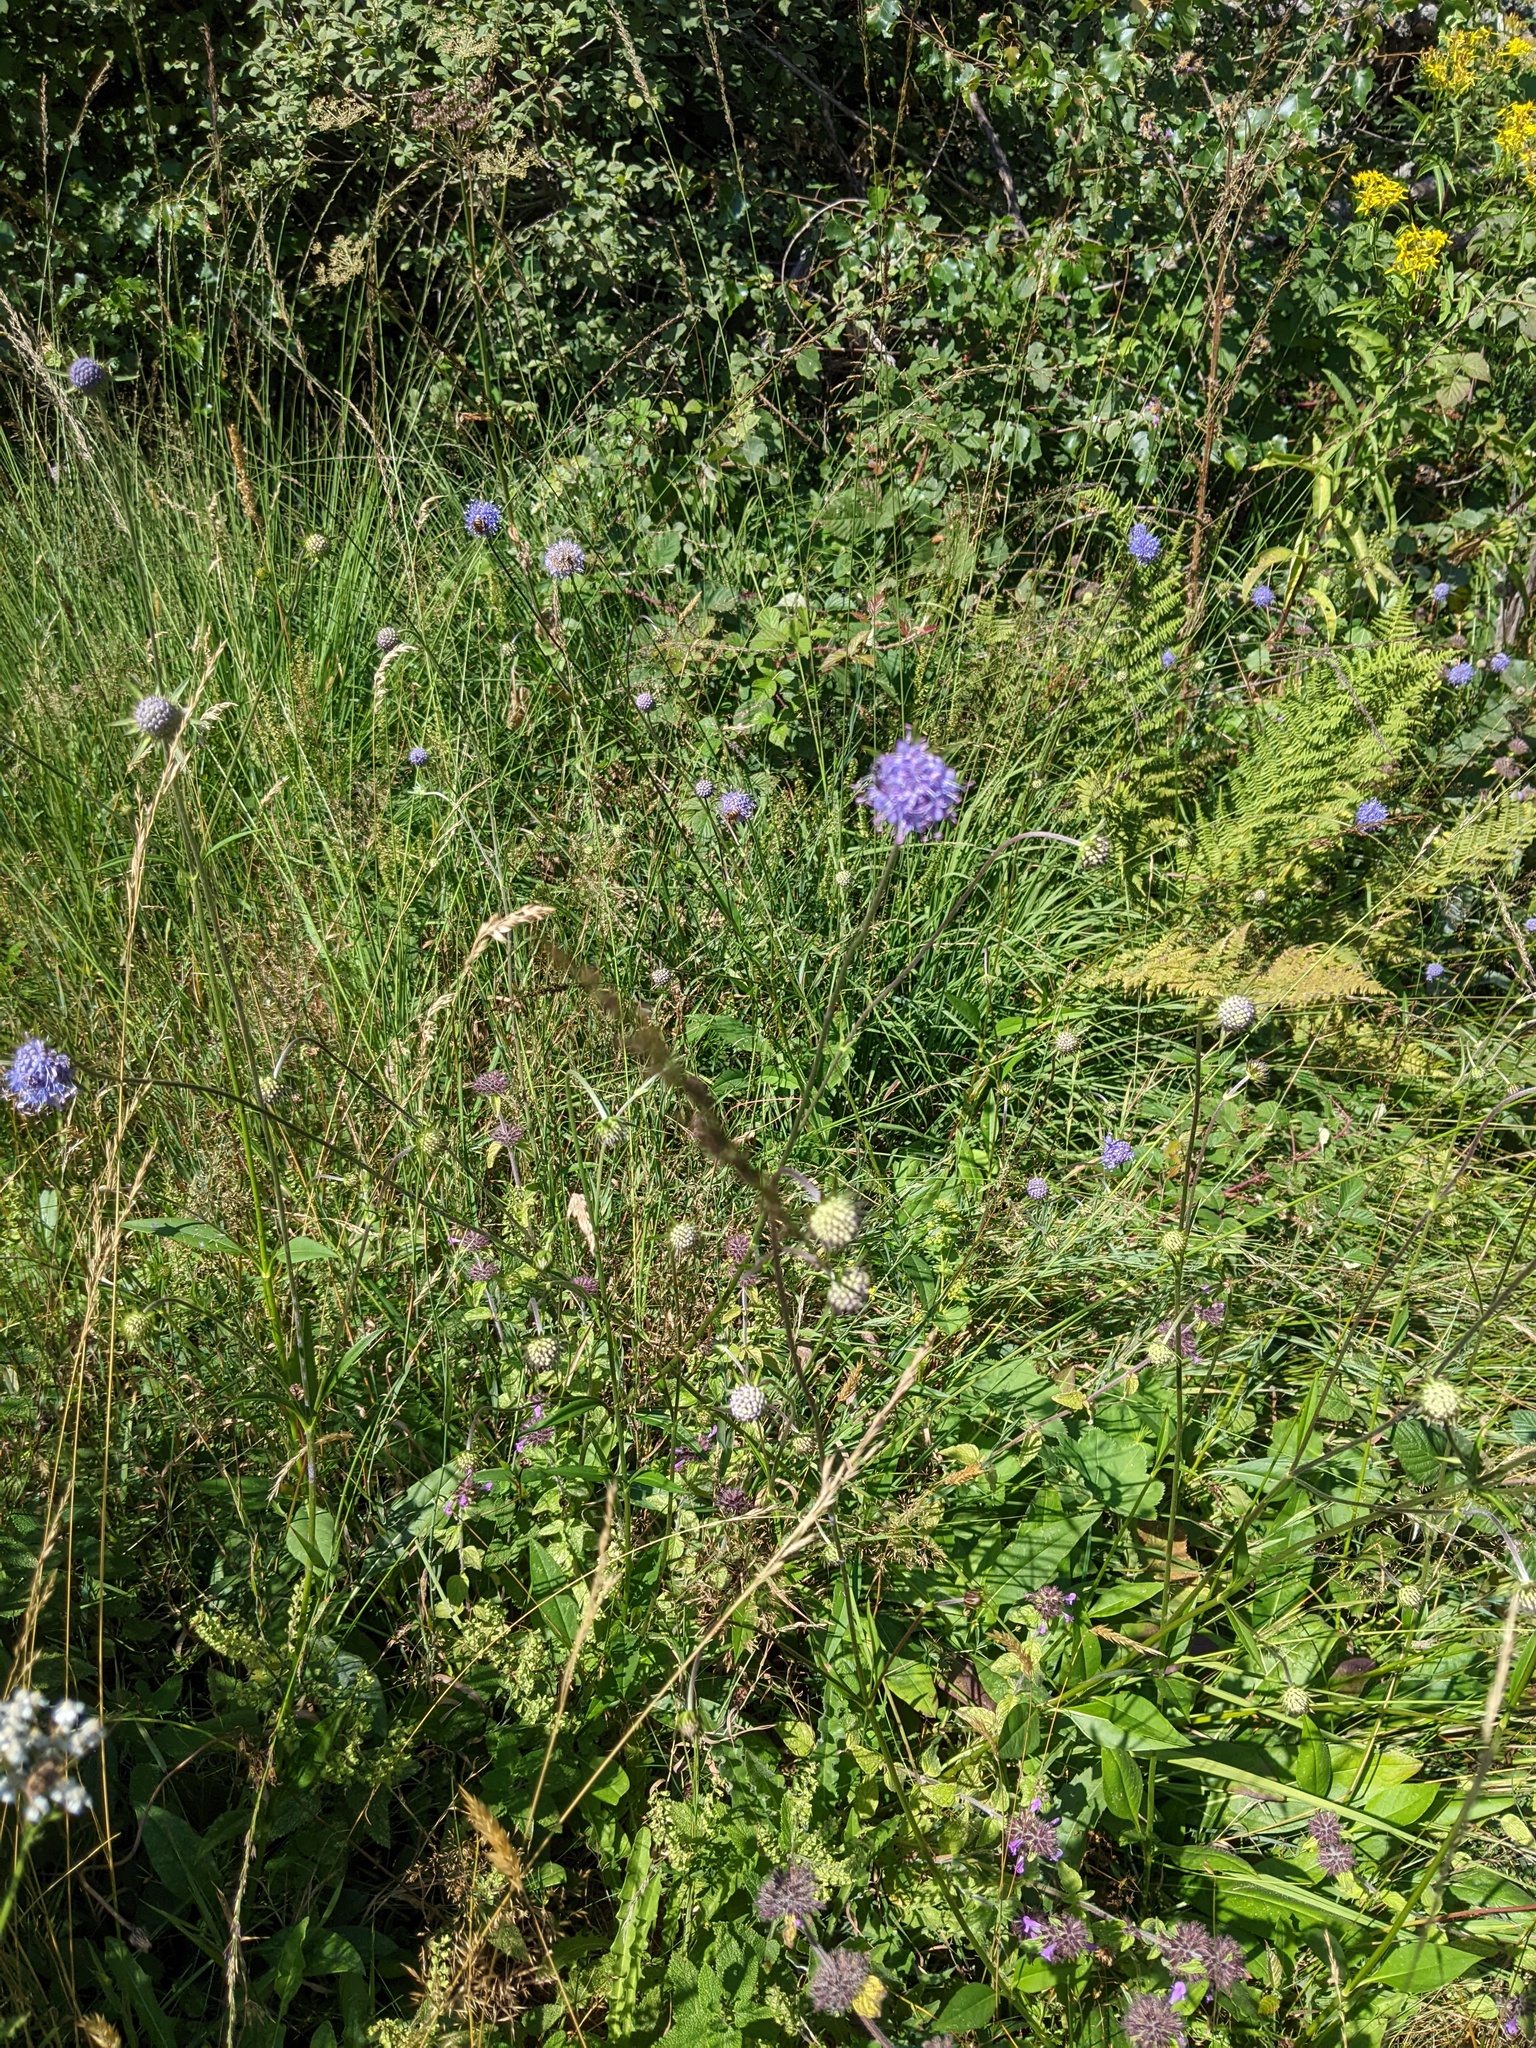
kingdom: Plantae
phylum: Tracheophyta
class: Magnoliopsida
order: Dipsacales
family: Caprifoliaceae
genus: Succisa
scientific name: Succisa pratensis
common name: Devil's-bit
